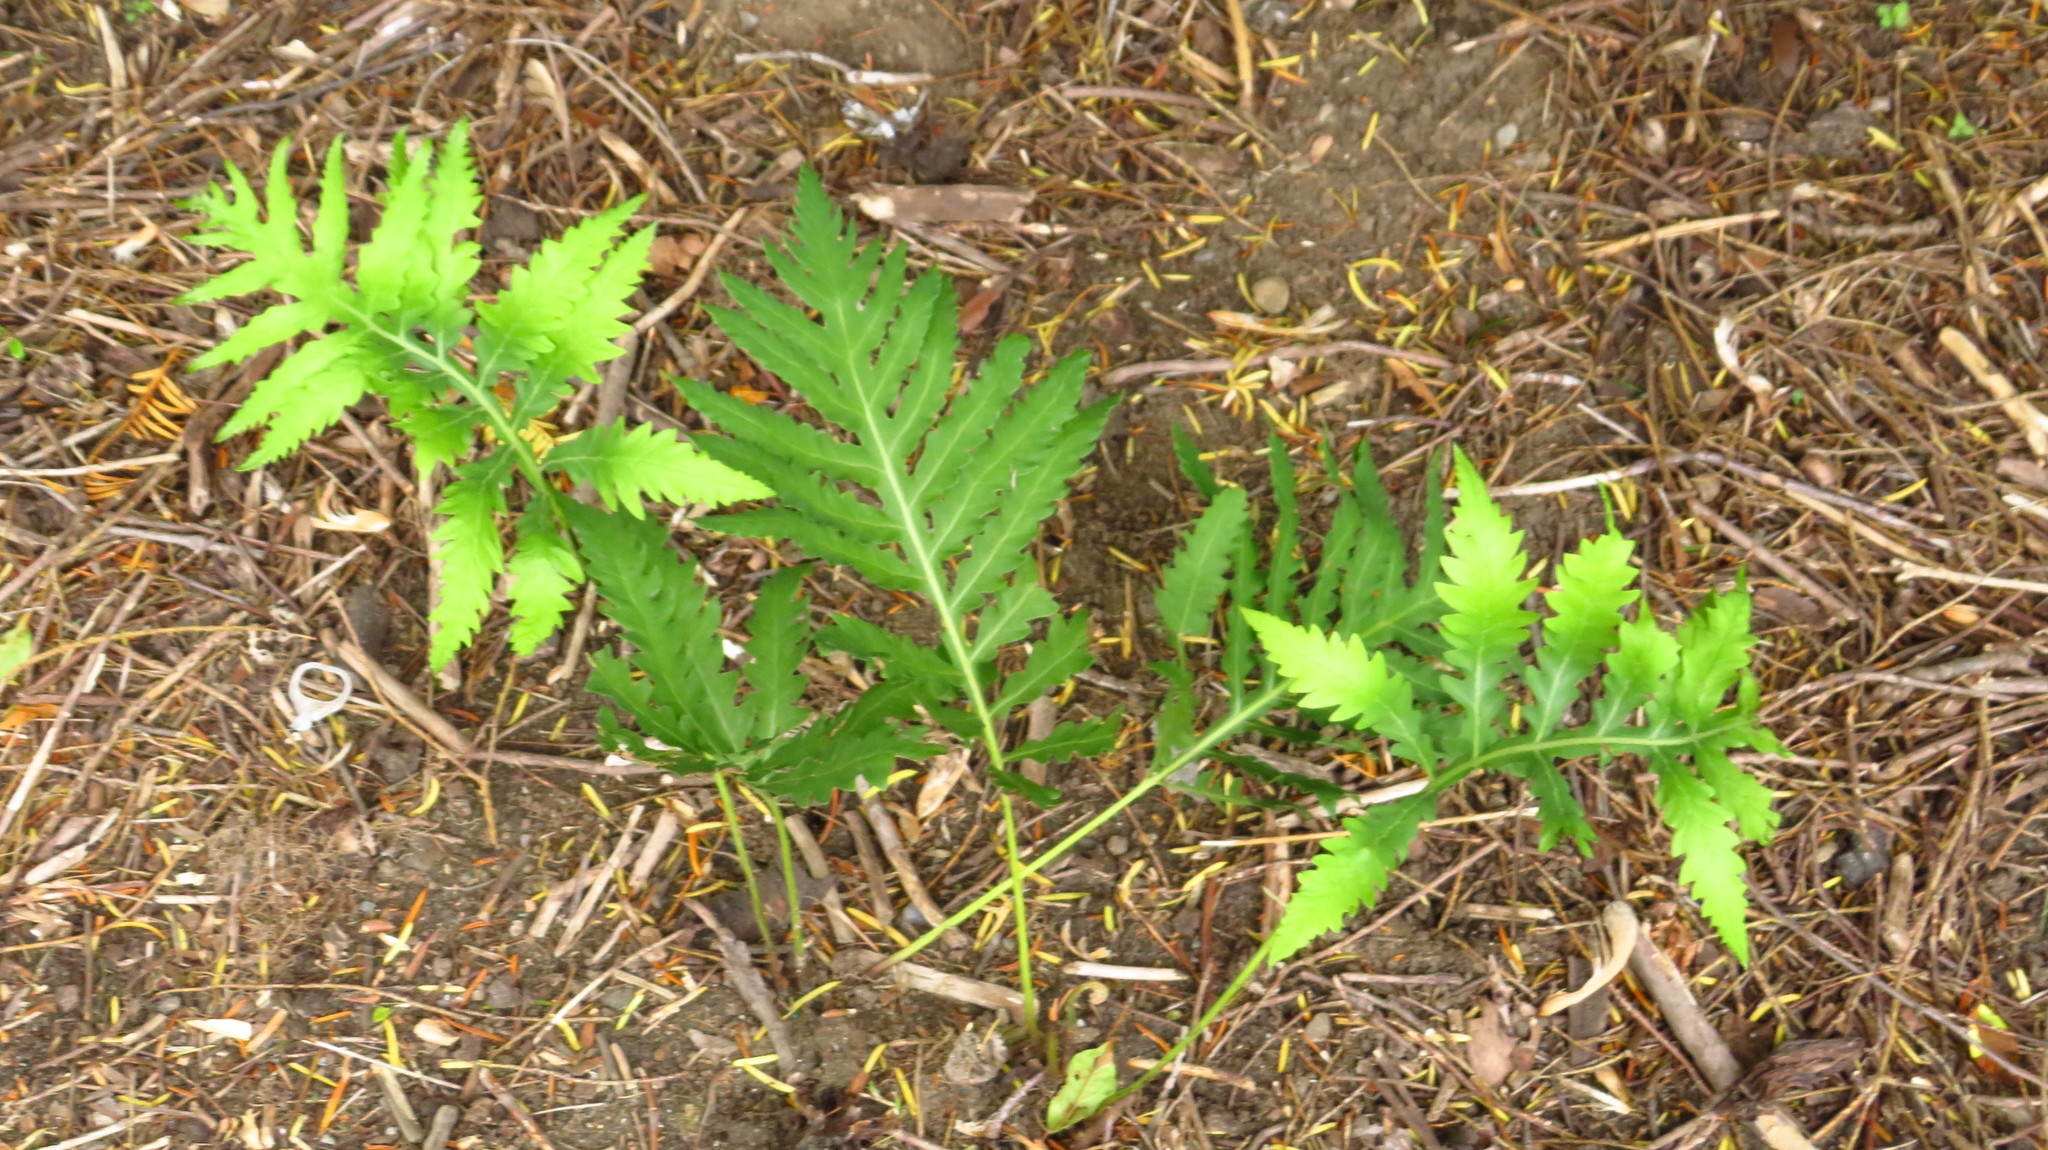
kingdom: Plantae
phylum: Tracheophyta
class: Polypodiopsida
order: Polypodiales
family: Onocleaceae
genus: Onoclea
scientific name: Onoclea sensibilis
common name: Sensitive fern
